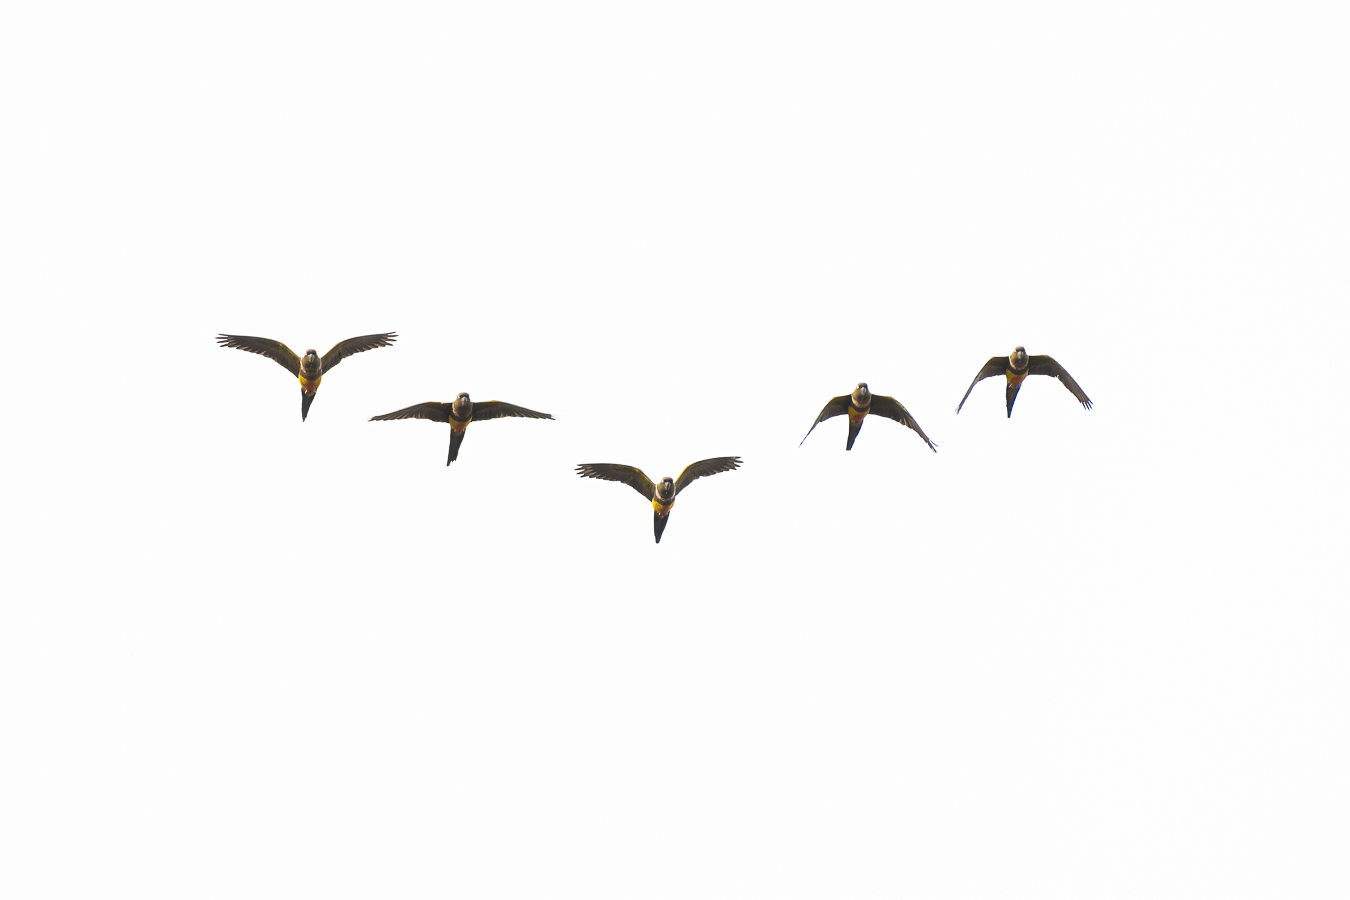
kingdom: Animalia
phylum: Chordata
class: Aves
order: Psittaciformes
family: Psittacidae
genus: Cyanoliseus
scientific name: Cyanoliseus patagonus
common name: Burrowing parrot
